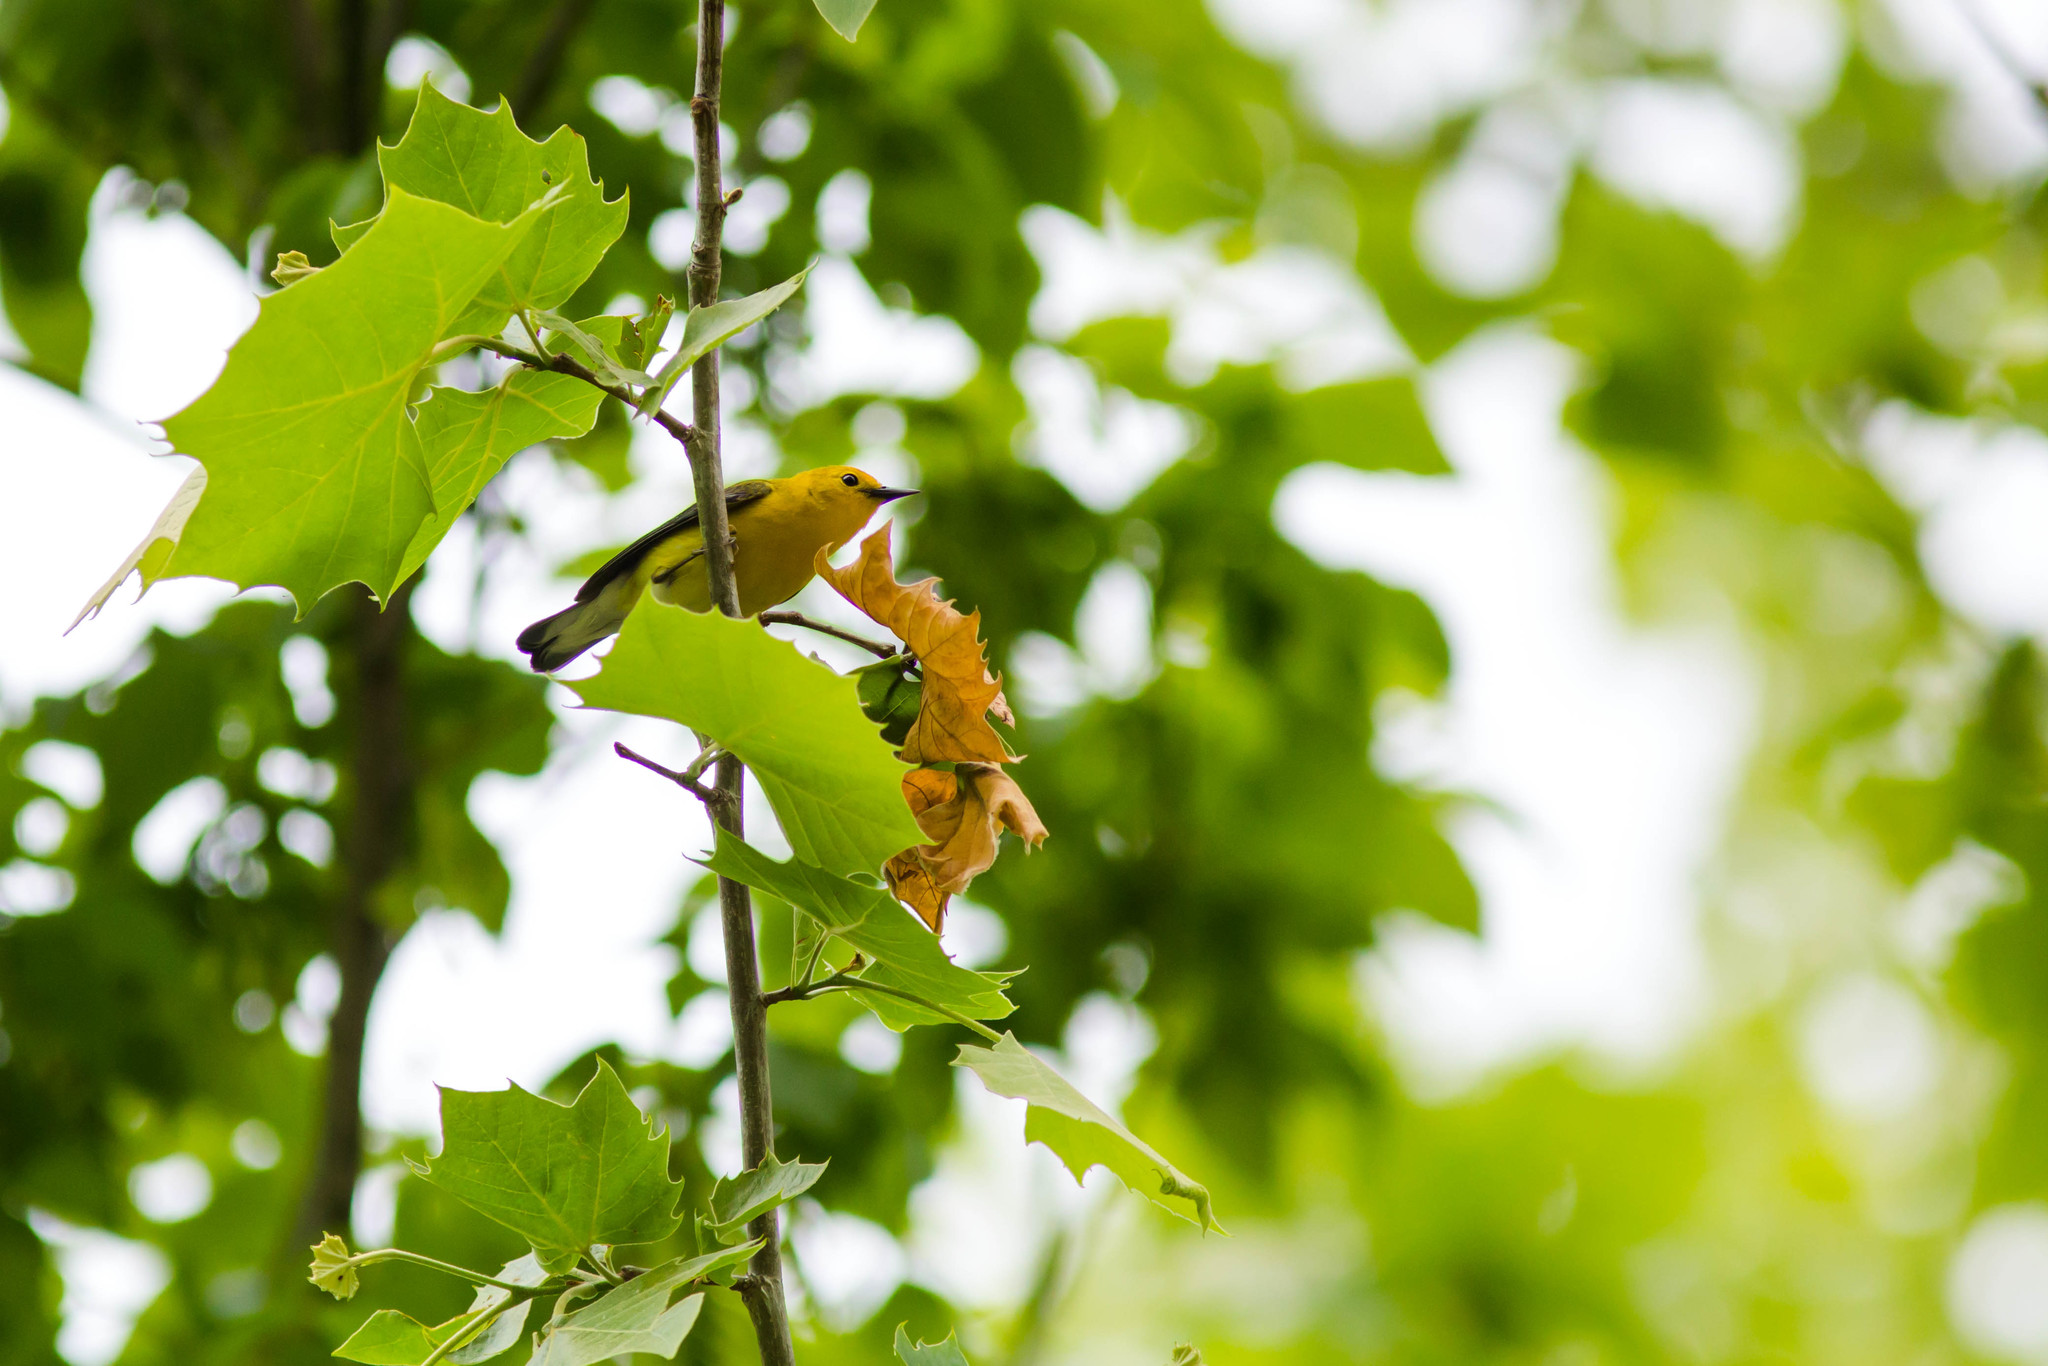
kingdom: Animalia
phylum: Chordata
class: Aves
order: Passeriformes
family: Parulidae
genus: Protonotaria
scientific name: Protonotaria citrea
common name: Prothonotary warbler
